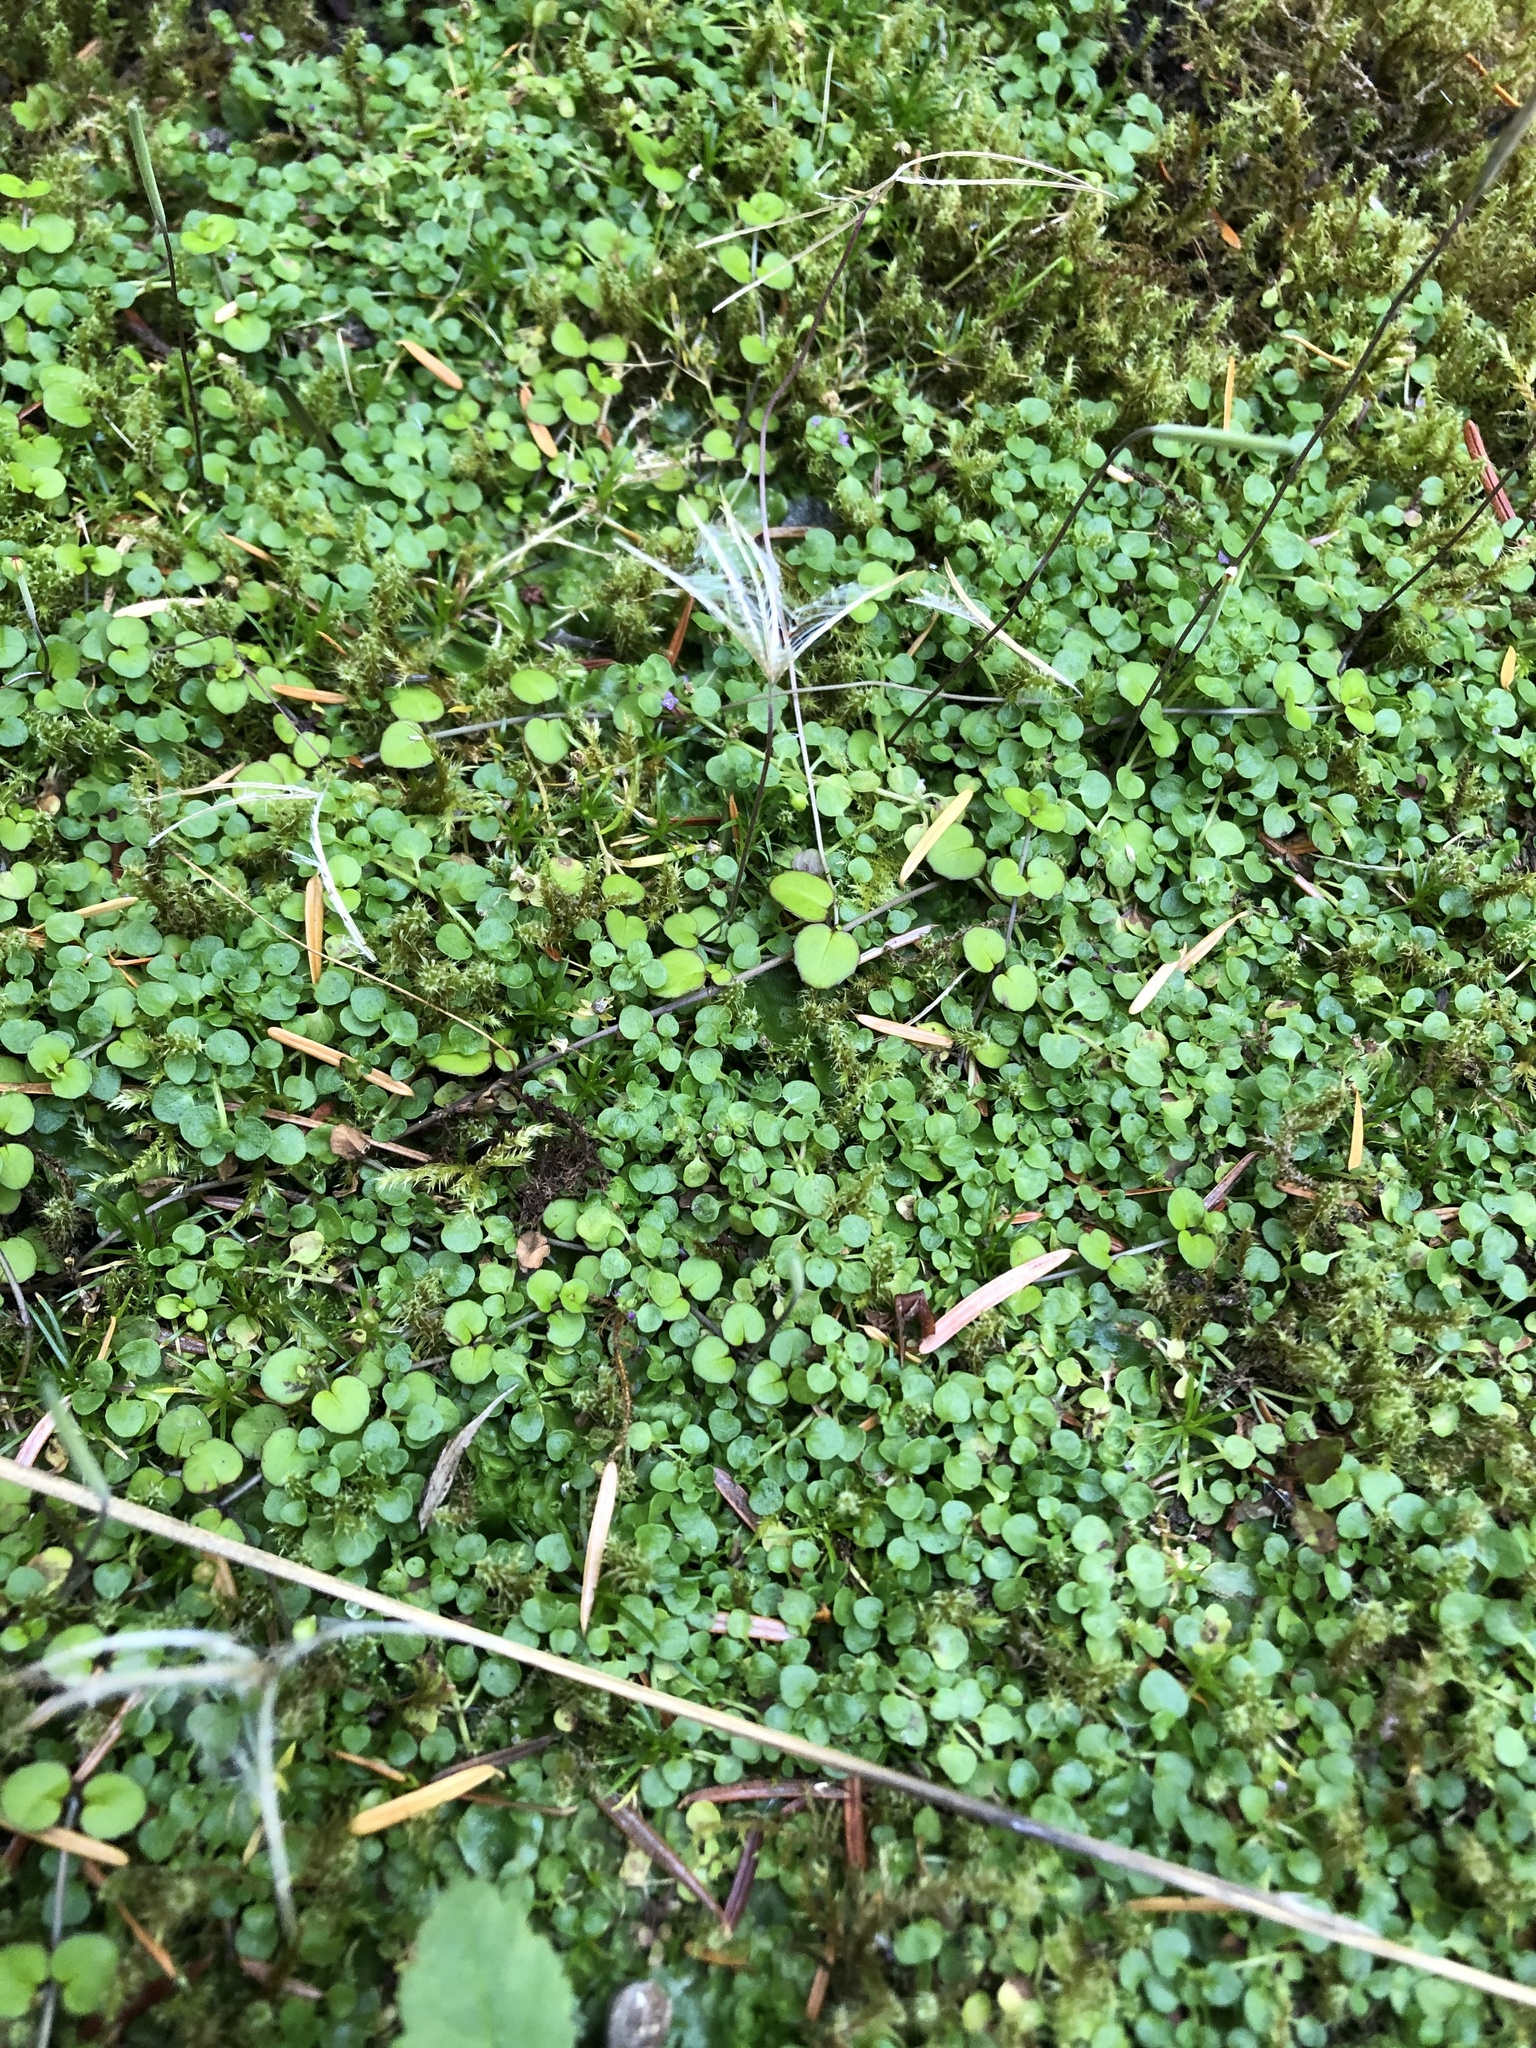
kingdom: Plantae
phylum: Tracheophyta
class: Magnoliopsida
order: Myrtales
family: Onagraceae
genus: Epilobium
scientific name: Epilobium nummularifolium
